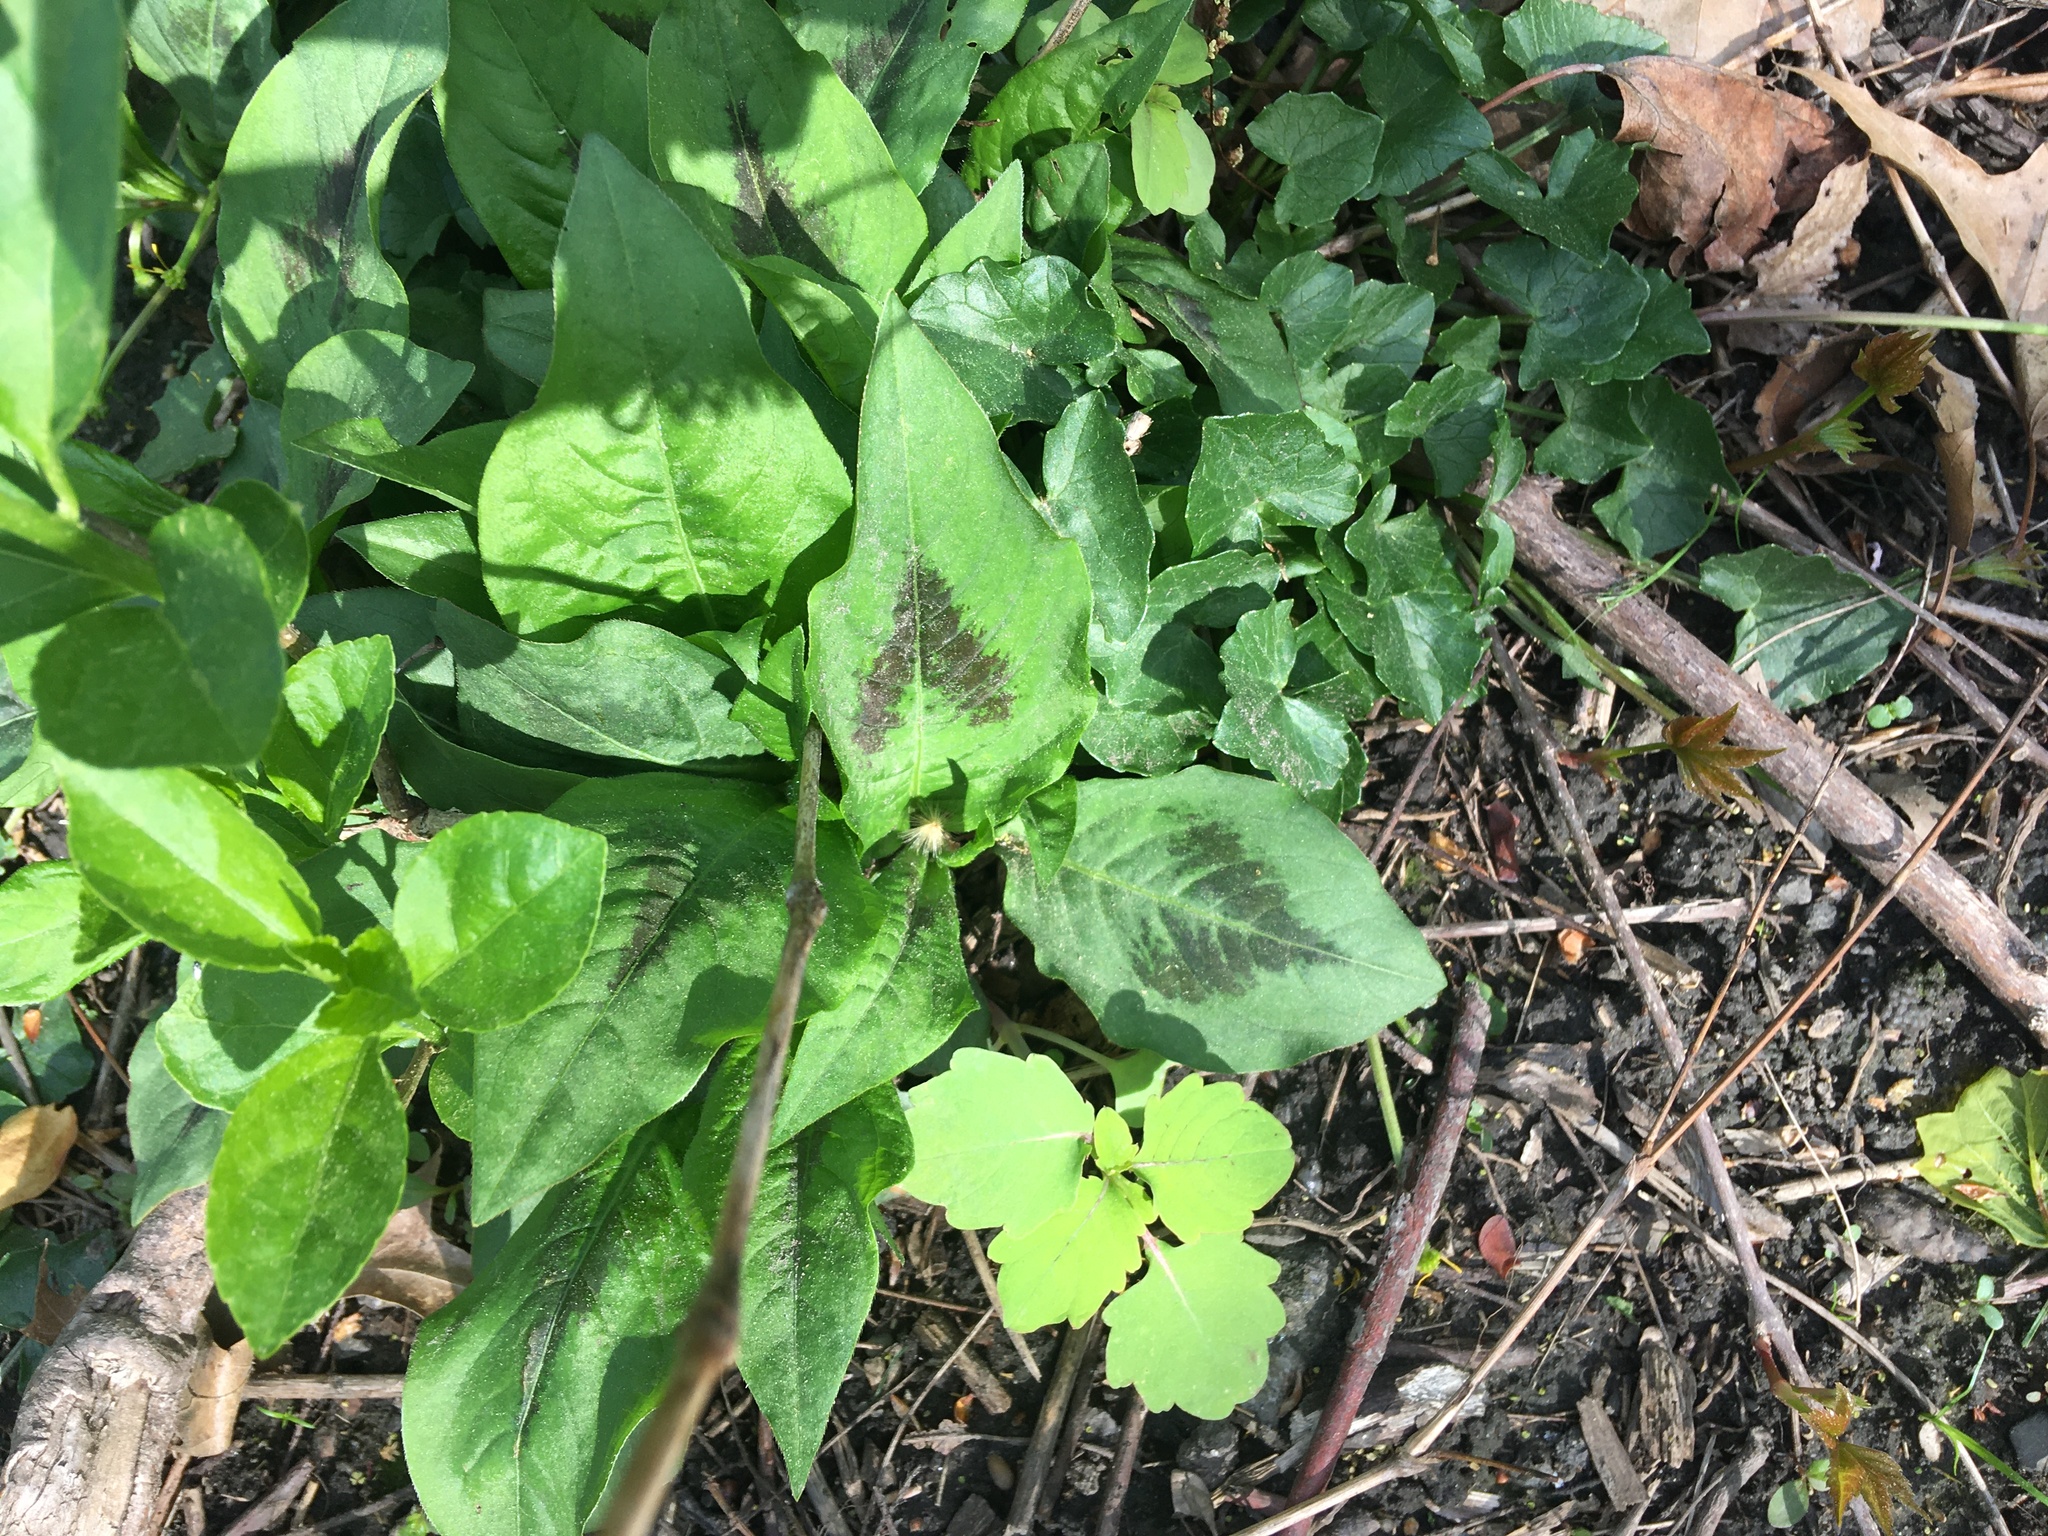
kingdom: Plantae
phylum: Tracheophyta
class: Magnoliopsida
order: Caryophyllales
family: Polygonaceae
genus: Persicaria
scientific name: Persicaria virginiana
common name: Jumpseed
